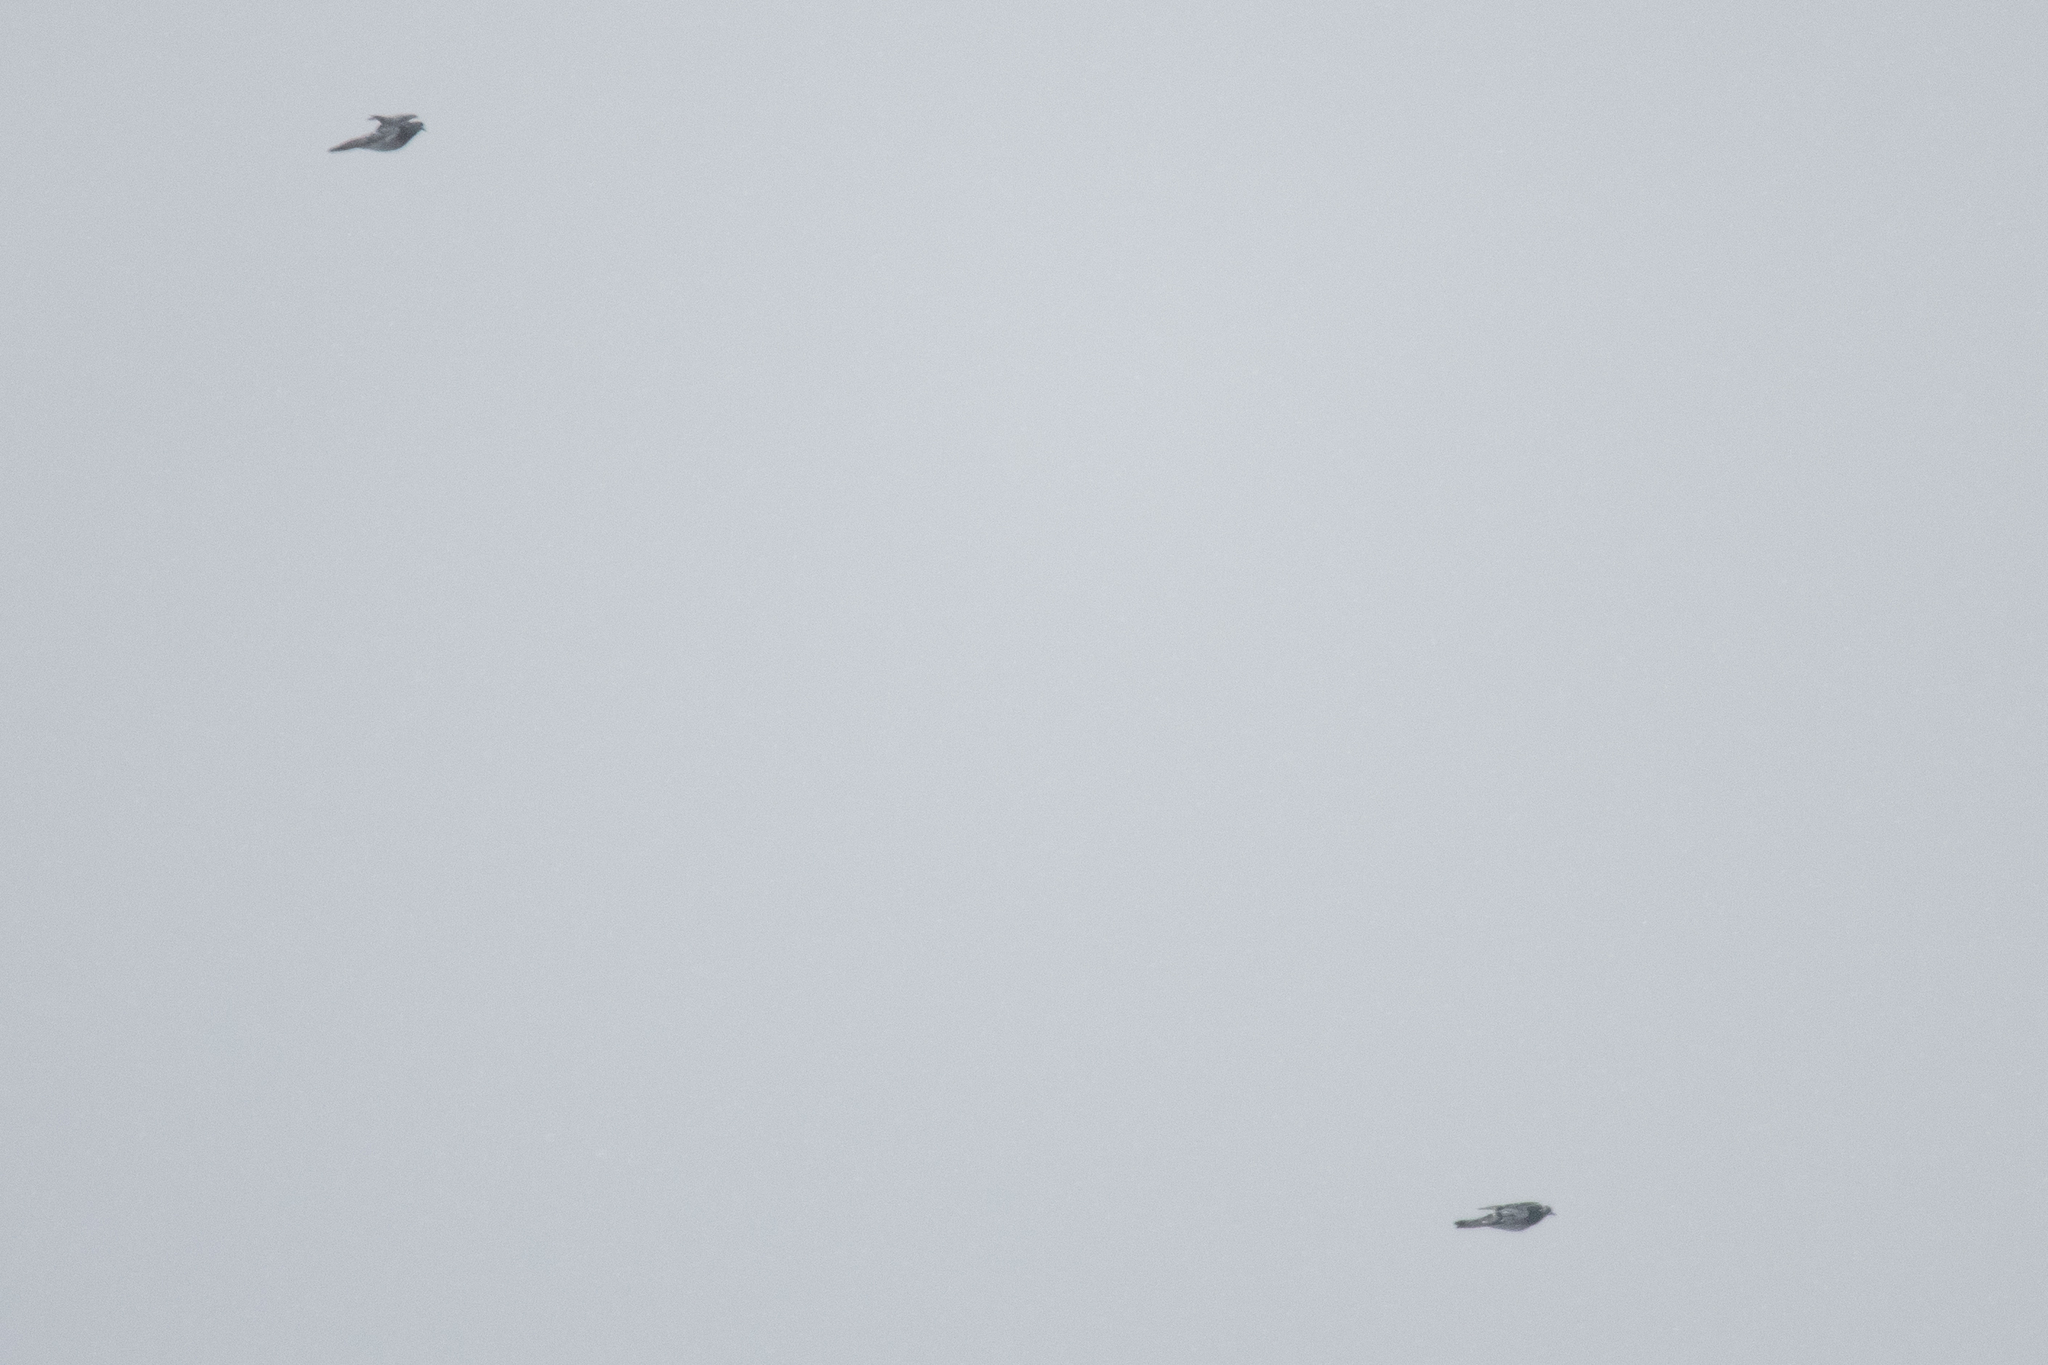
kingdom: Animalia
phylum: Chordata
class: Aves
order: Columbiformes
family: Columbidae
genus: Columba
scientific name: Columba livia
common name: Rock pigeon
